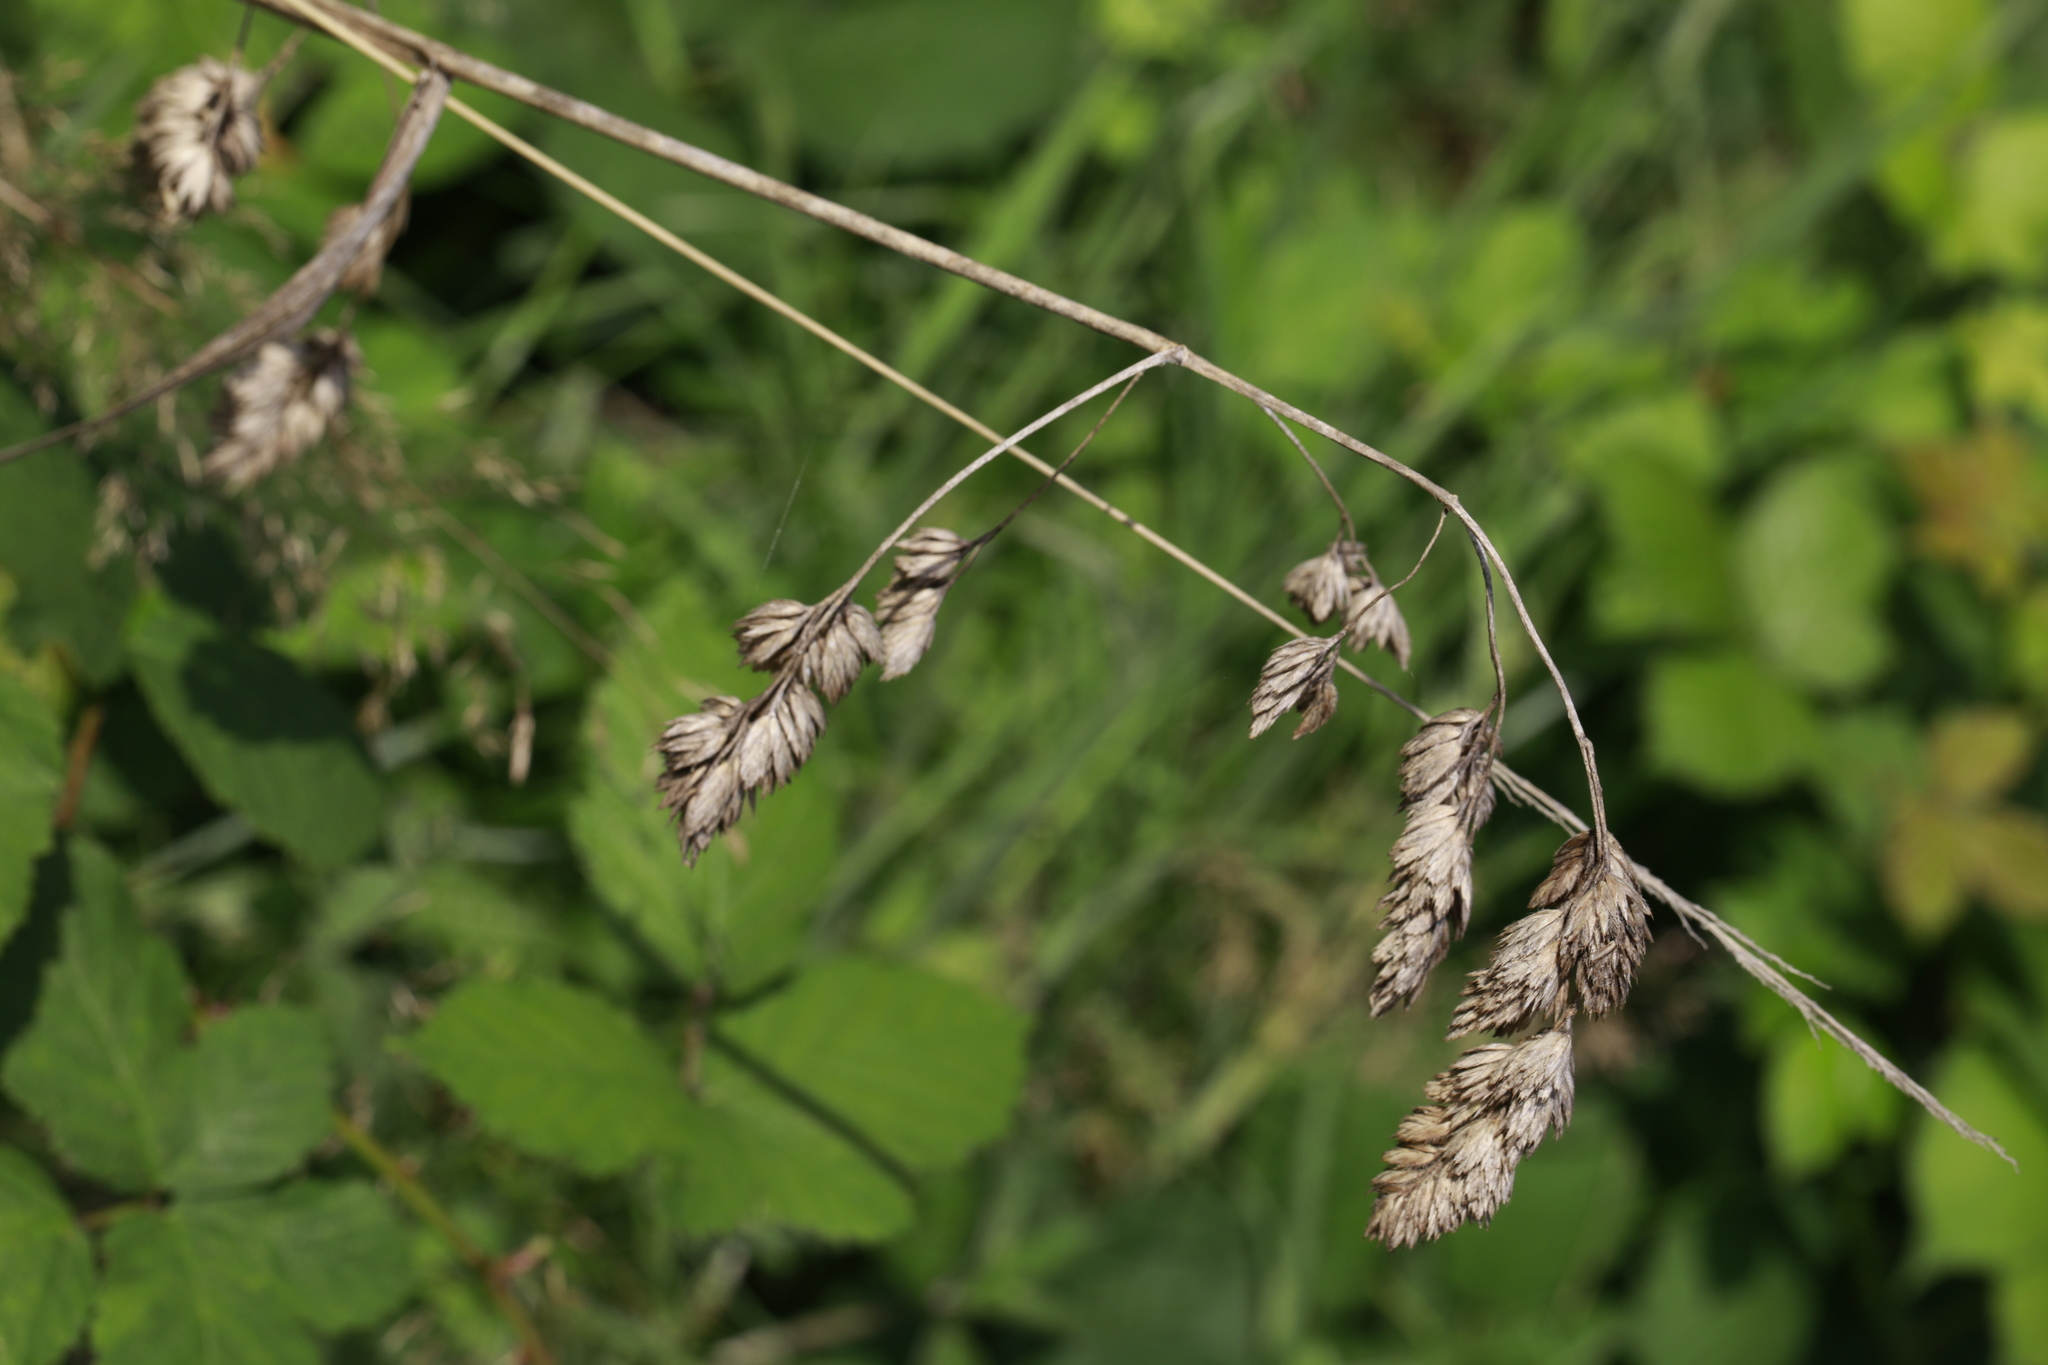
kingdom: Plantae
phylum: Tracheophyta
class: Liliopsida
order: Poales
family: Poaceae
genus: Dactylis
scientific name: Dactylis glomerata
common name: Orchardgrass
